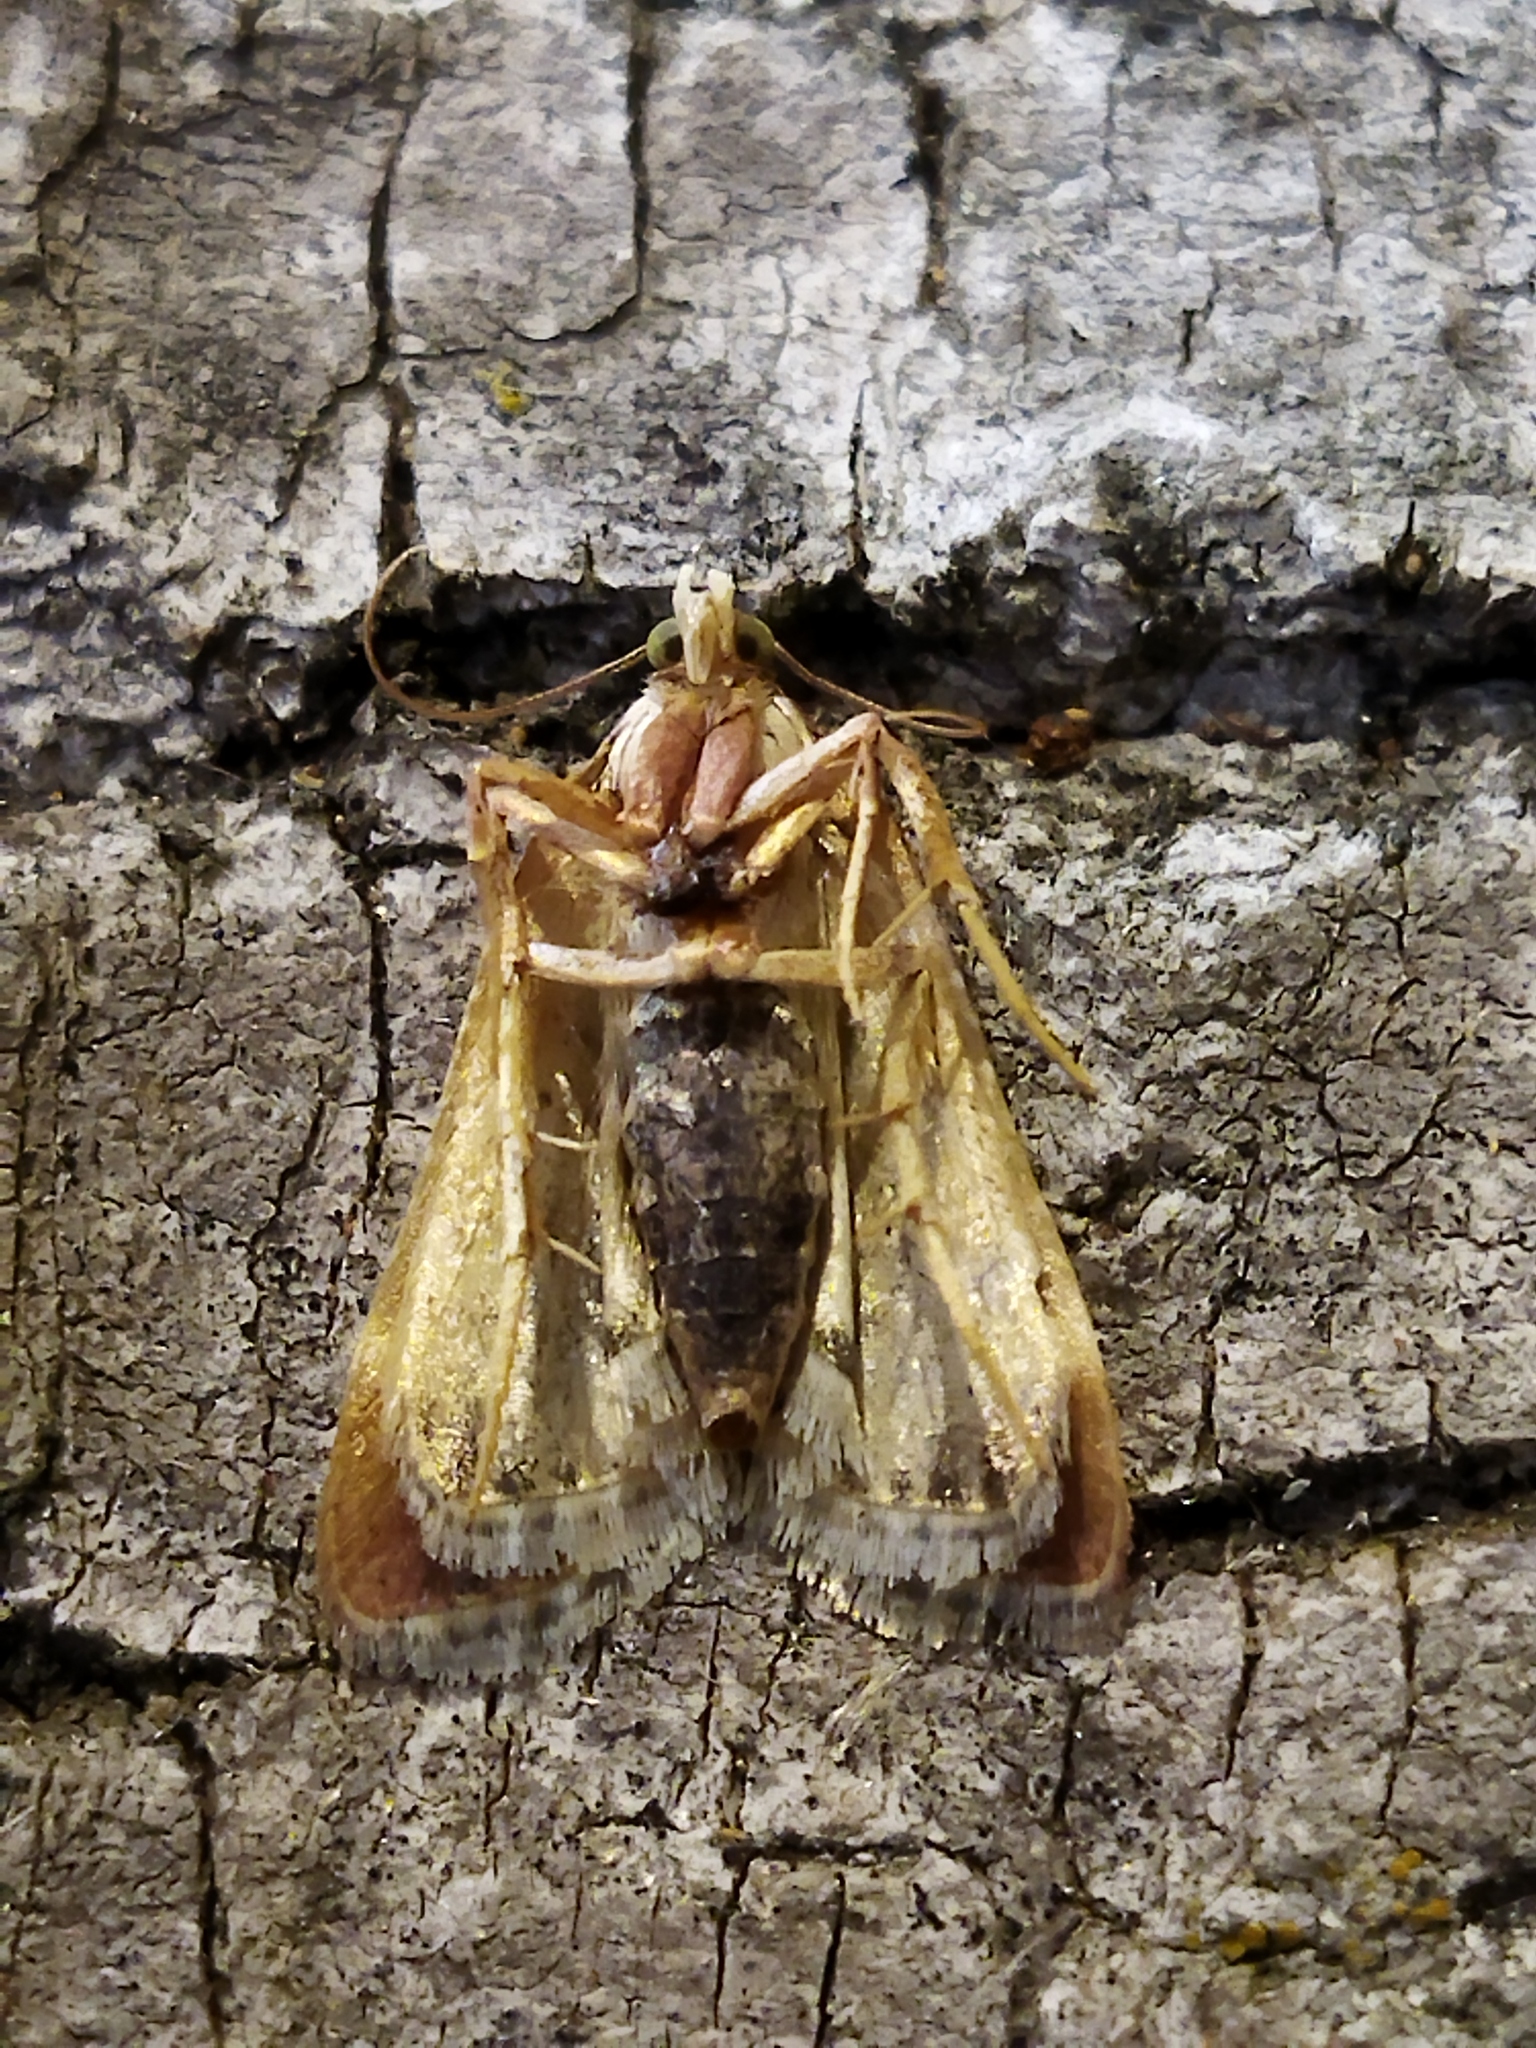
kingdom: Animalia
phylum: Arthropoda
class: Insecta
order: Lepidoptera
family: Pyralidae
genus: Pyralis
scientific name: Pyralis farinalis
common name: Meal moth
